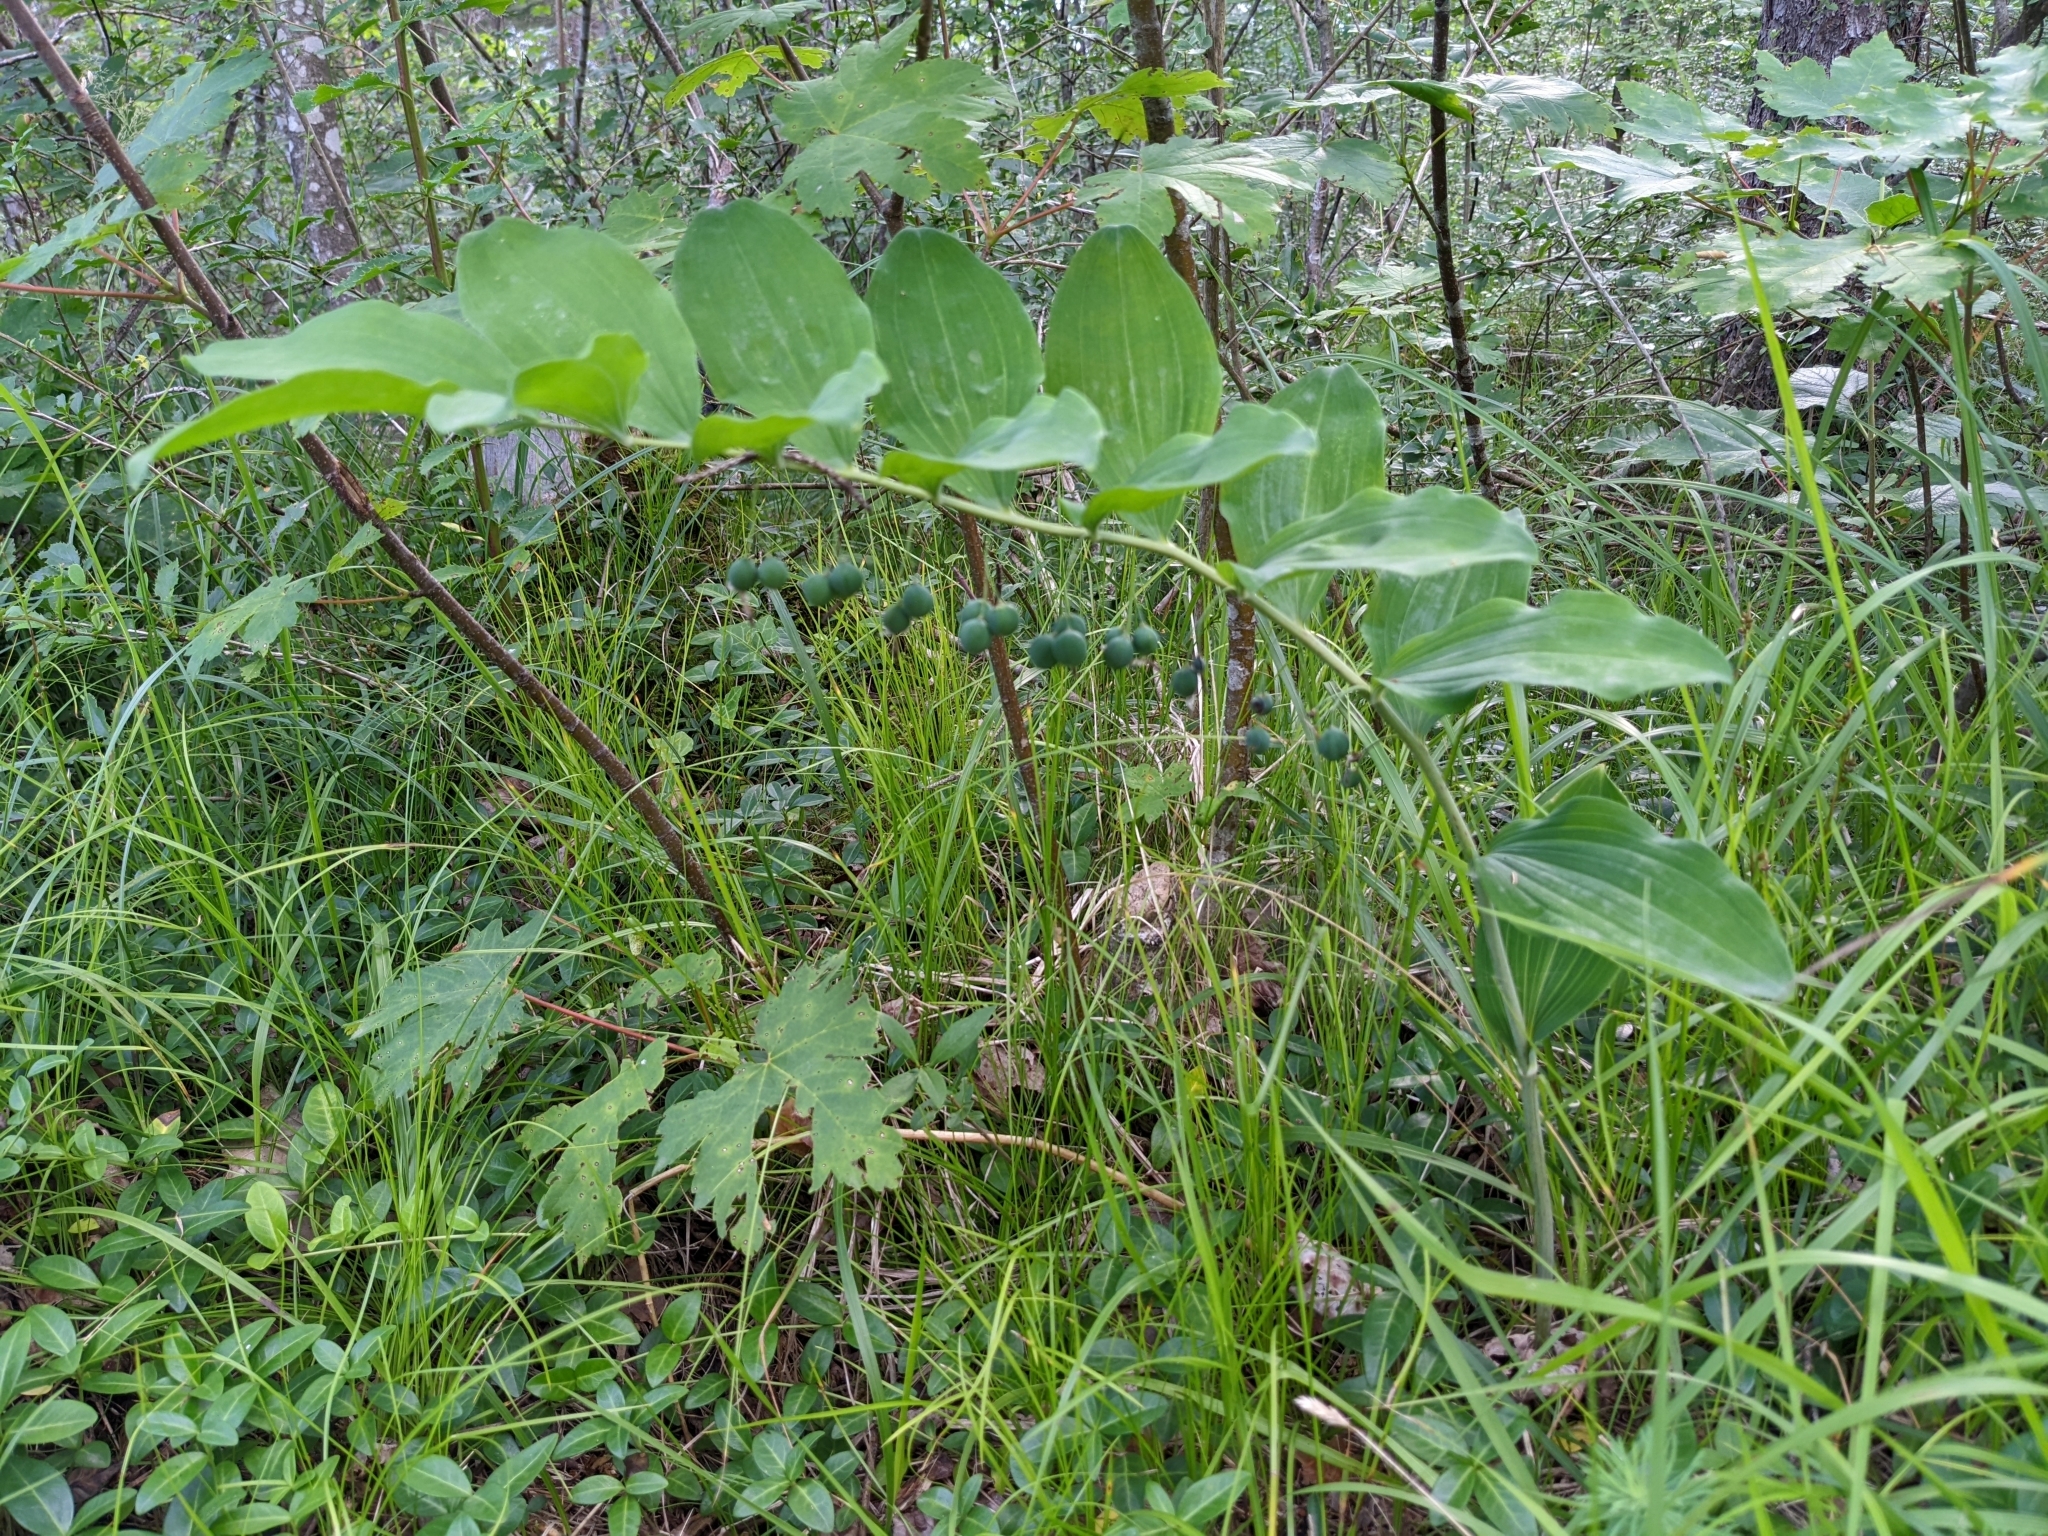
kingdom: Plantae
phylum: Tracheophyta
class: Liliopsida
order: Asparagales
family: Asparagaceae
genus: Polygonatum
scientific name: Polygonatum multiflorum
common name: Solomon's-seal
